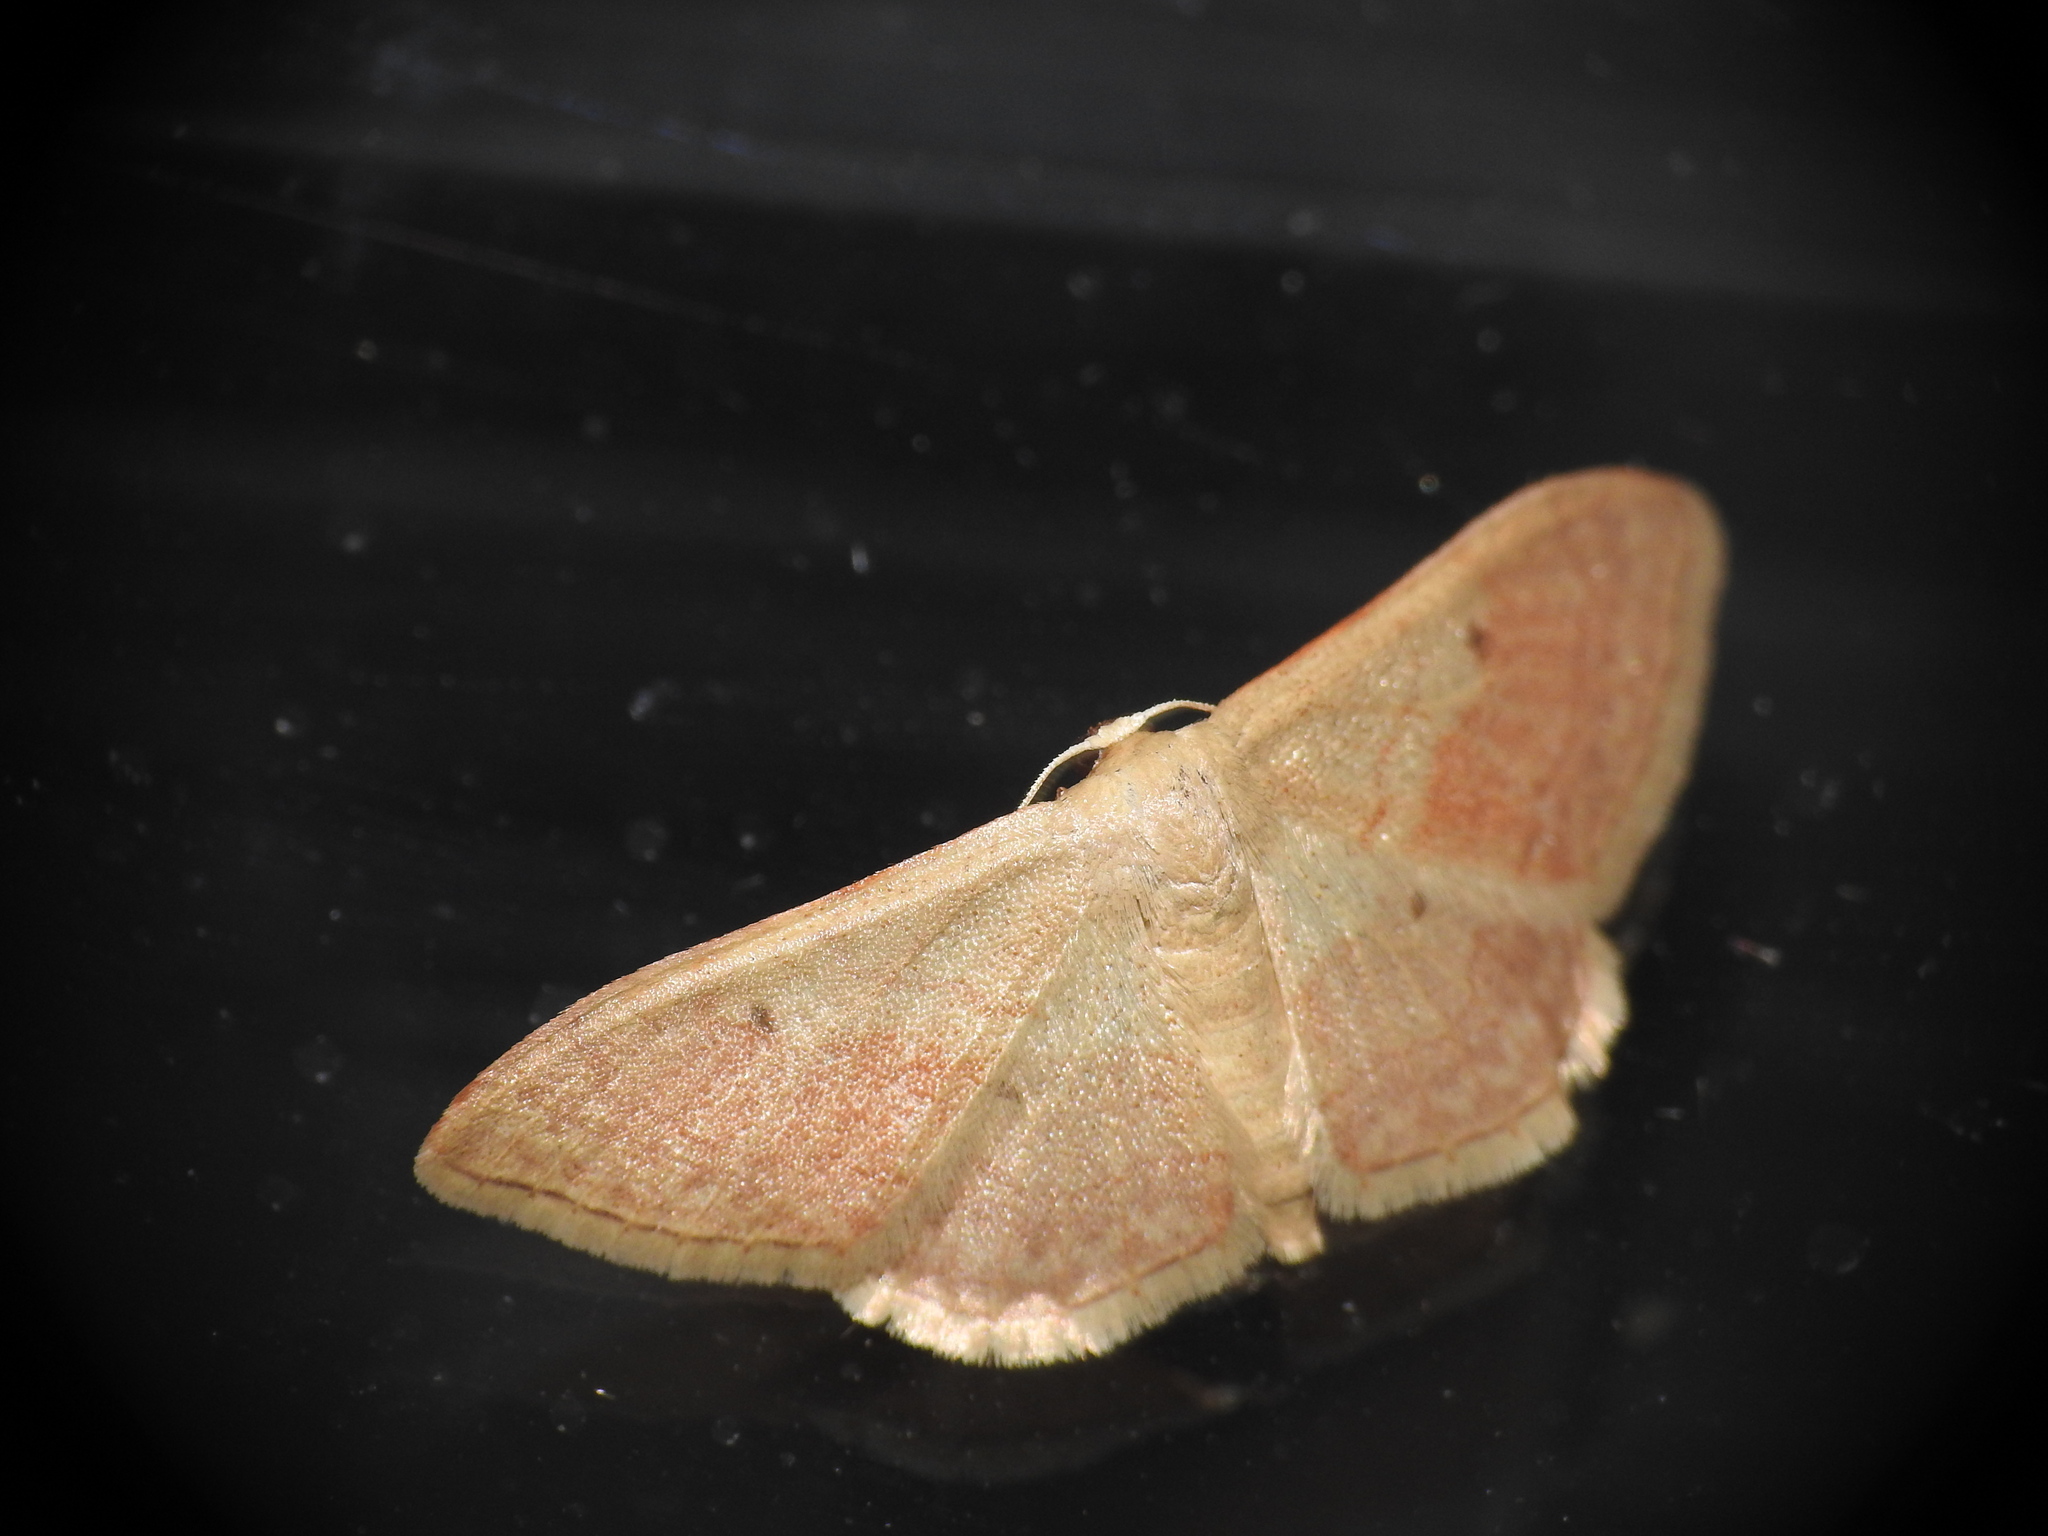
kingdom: Animalia
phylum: Arthropoda
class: Insecta
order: Lepidoptera
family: Geometridae
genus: Idaea
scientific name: Idaea bilinearia
